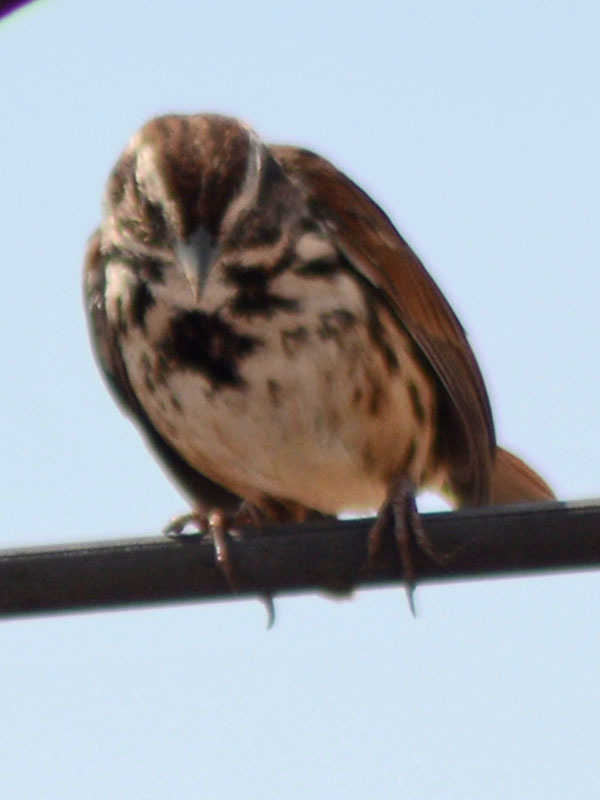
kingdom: Animalia
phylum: Chordata
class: Aves
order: Passeriformes
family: Passerellidae
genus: Melospiza
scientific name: Melospiza melodia
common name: Song sparrow
